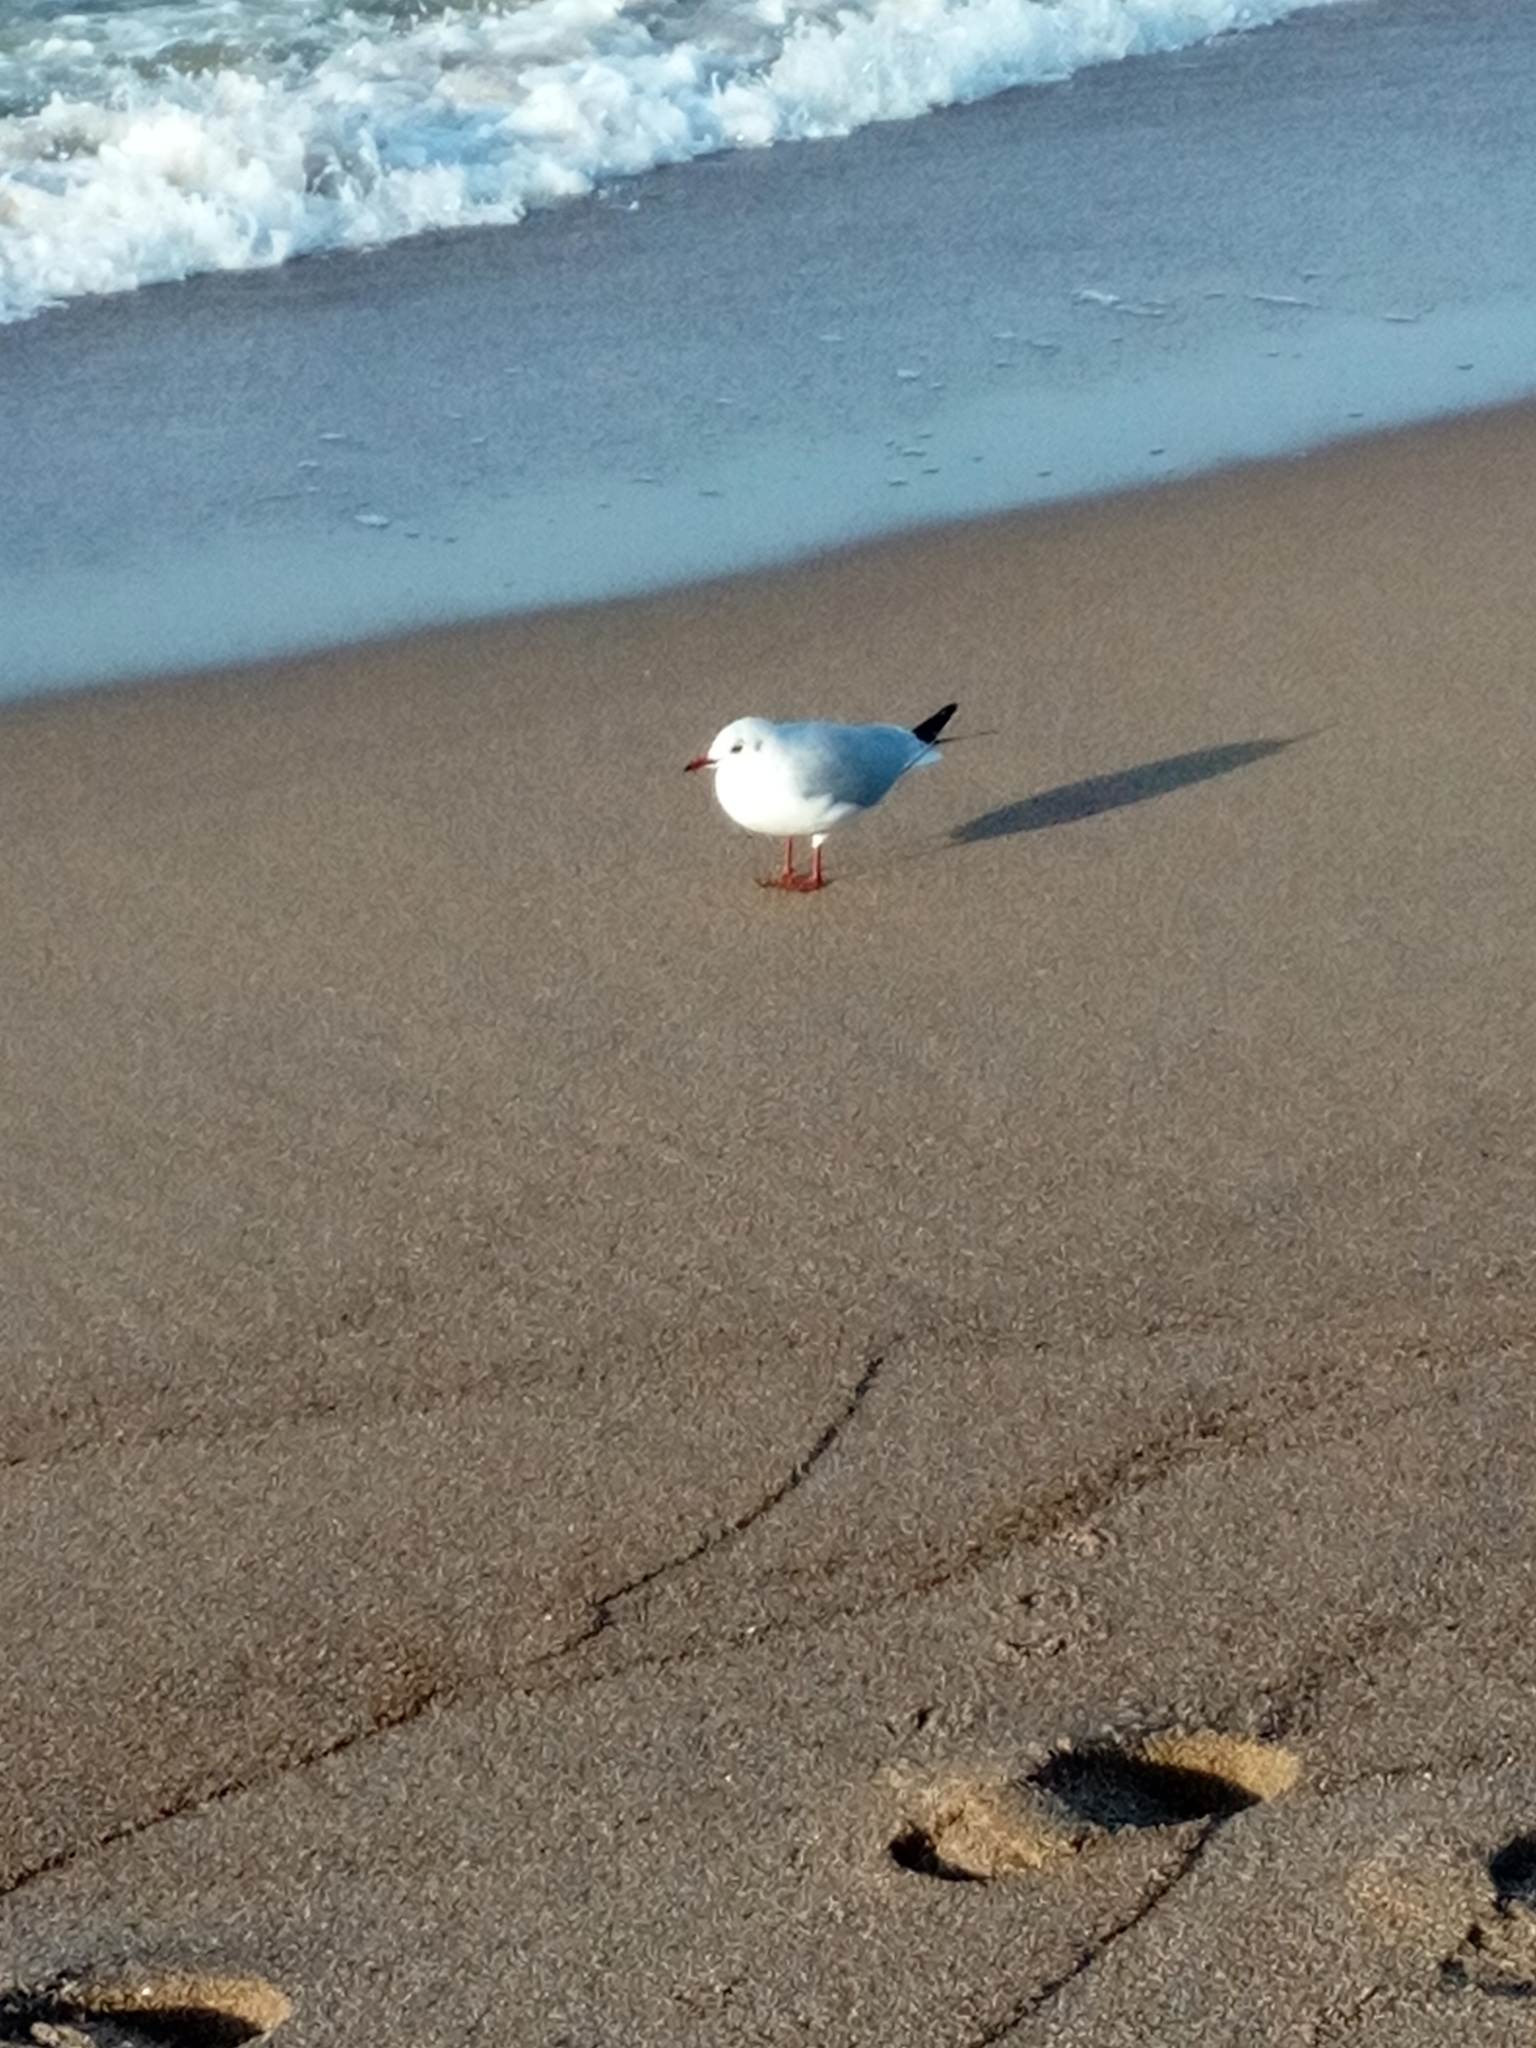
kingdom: Animalia
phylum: Chordata
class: Aves
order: Charadriiformes
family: Laridae
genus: Chroicocephalus
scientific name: Chroicocephalus ridibundus
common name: Black-headed gull
